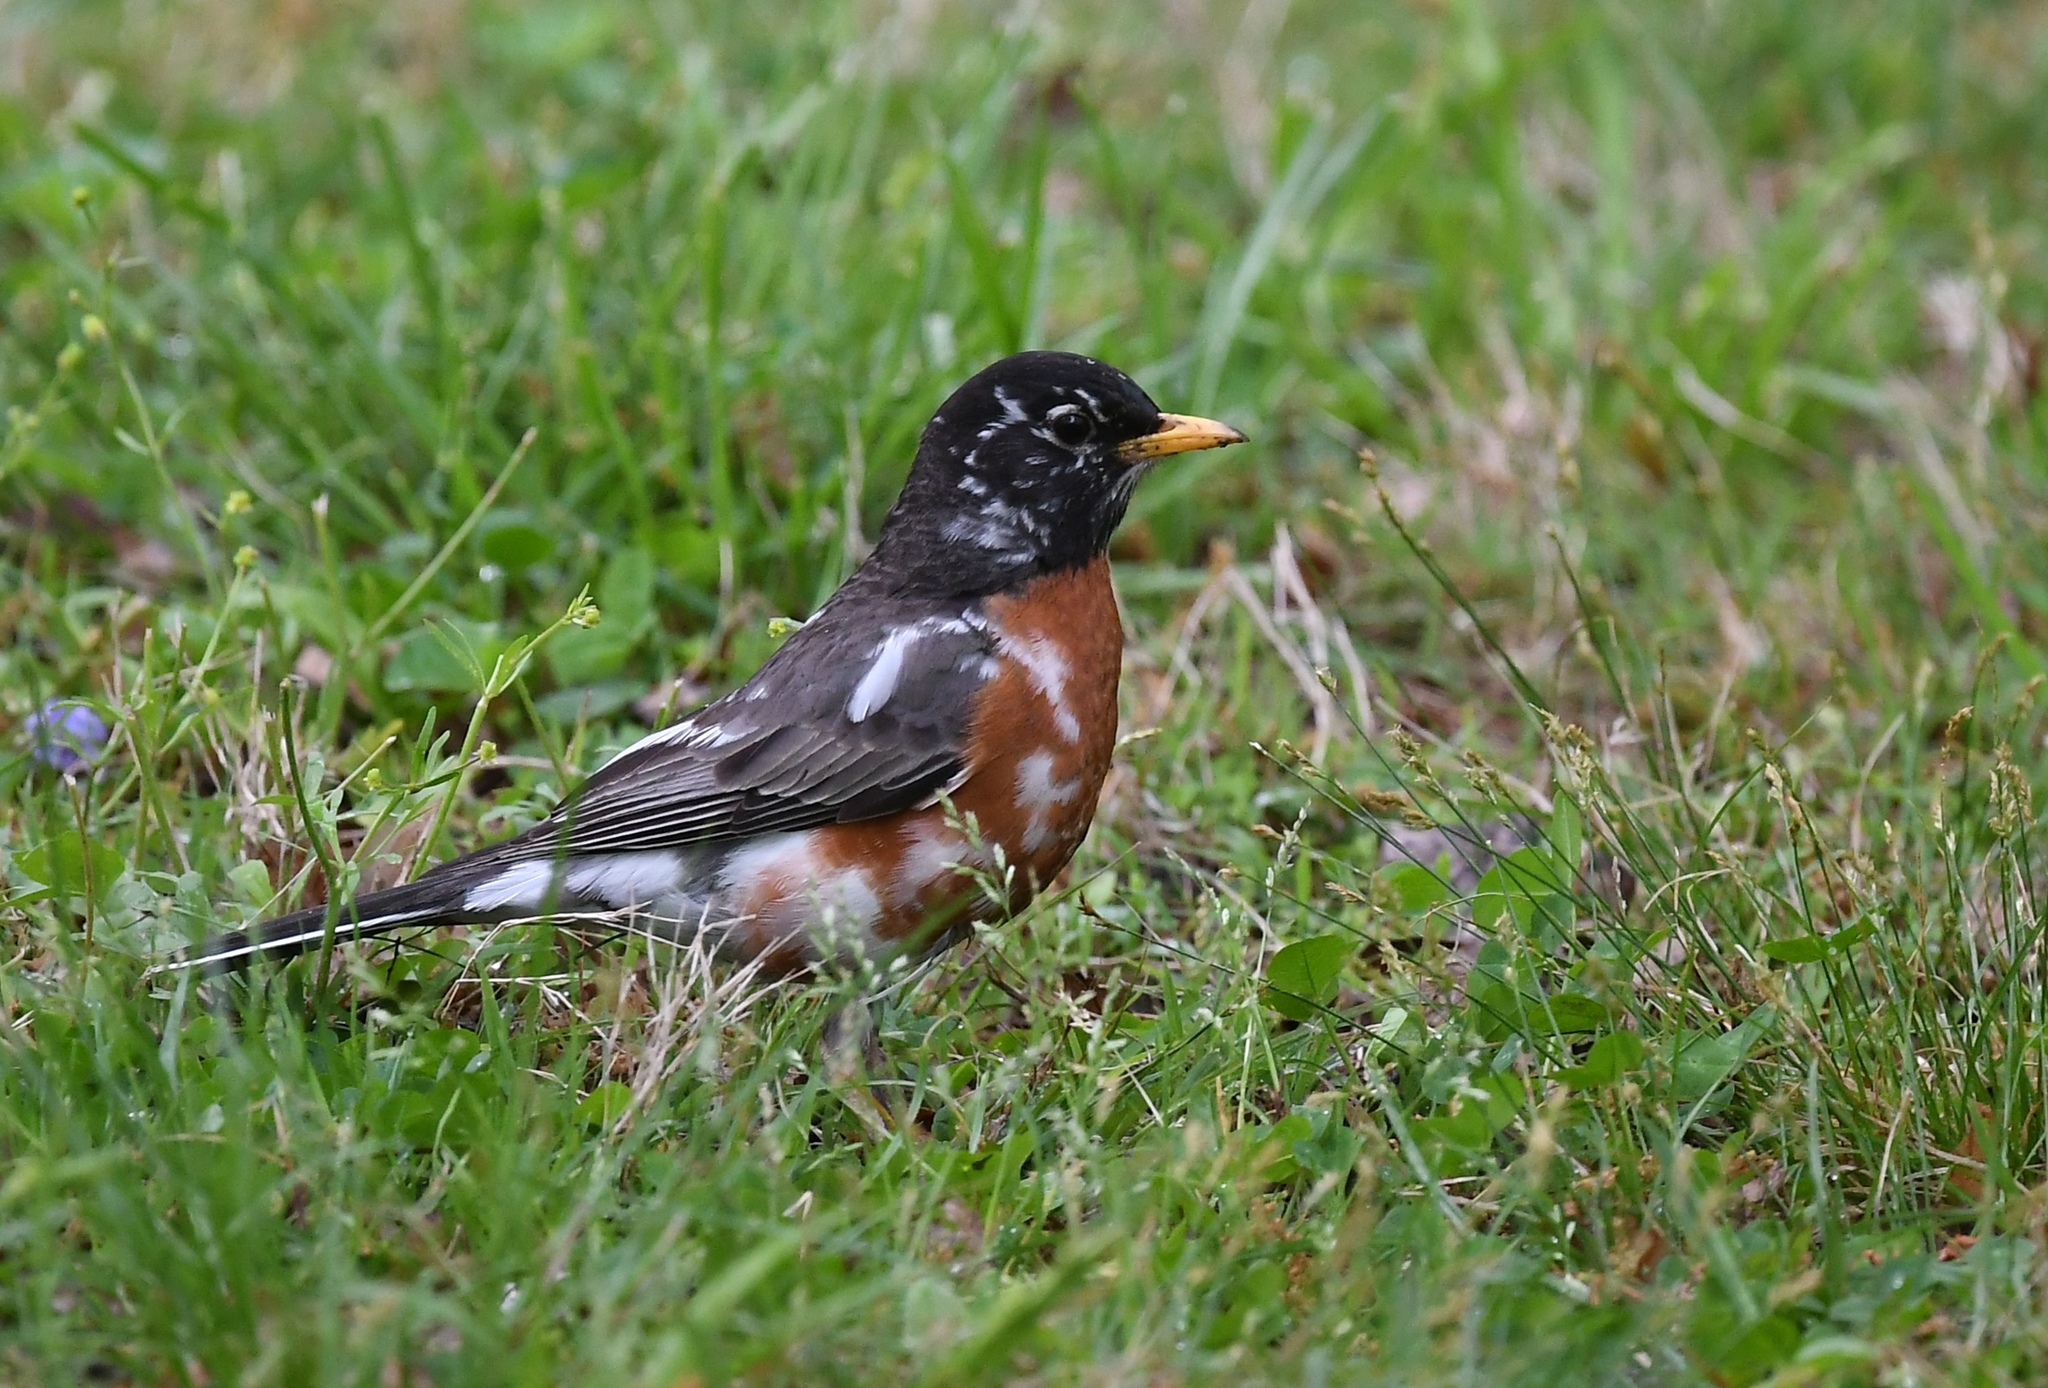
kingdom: Animalia
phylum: Chordata
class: Aves
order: Passeriformes
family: Turdidae
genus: Turdus
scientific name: Turdus migratorius
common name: American robin
